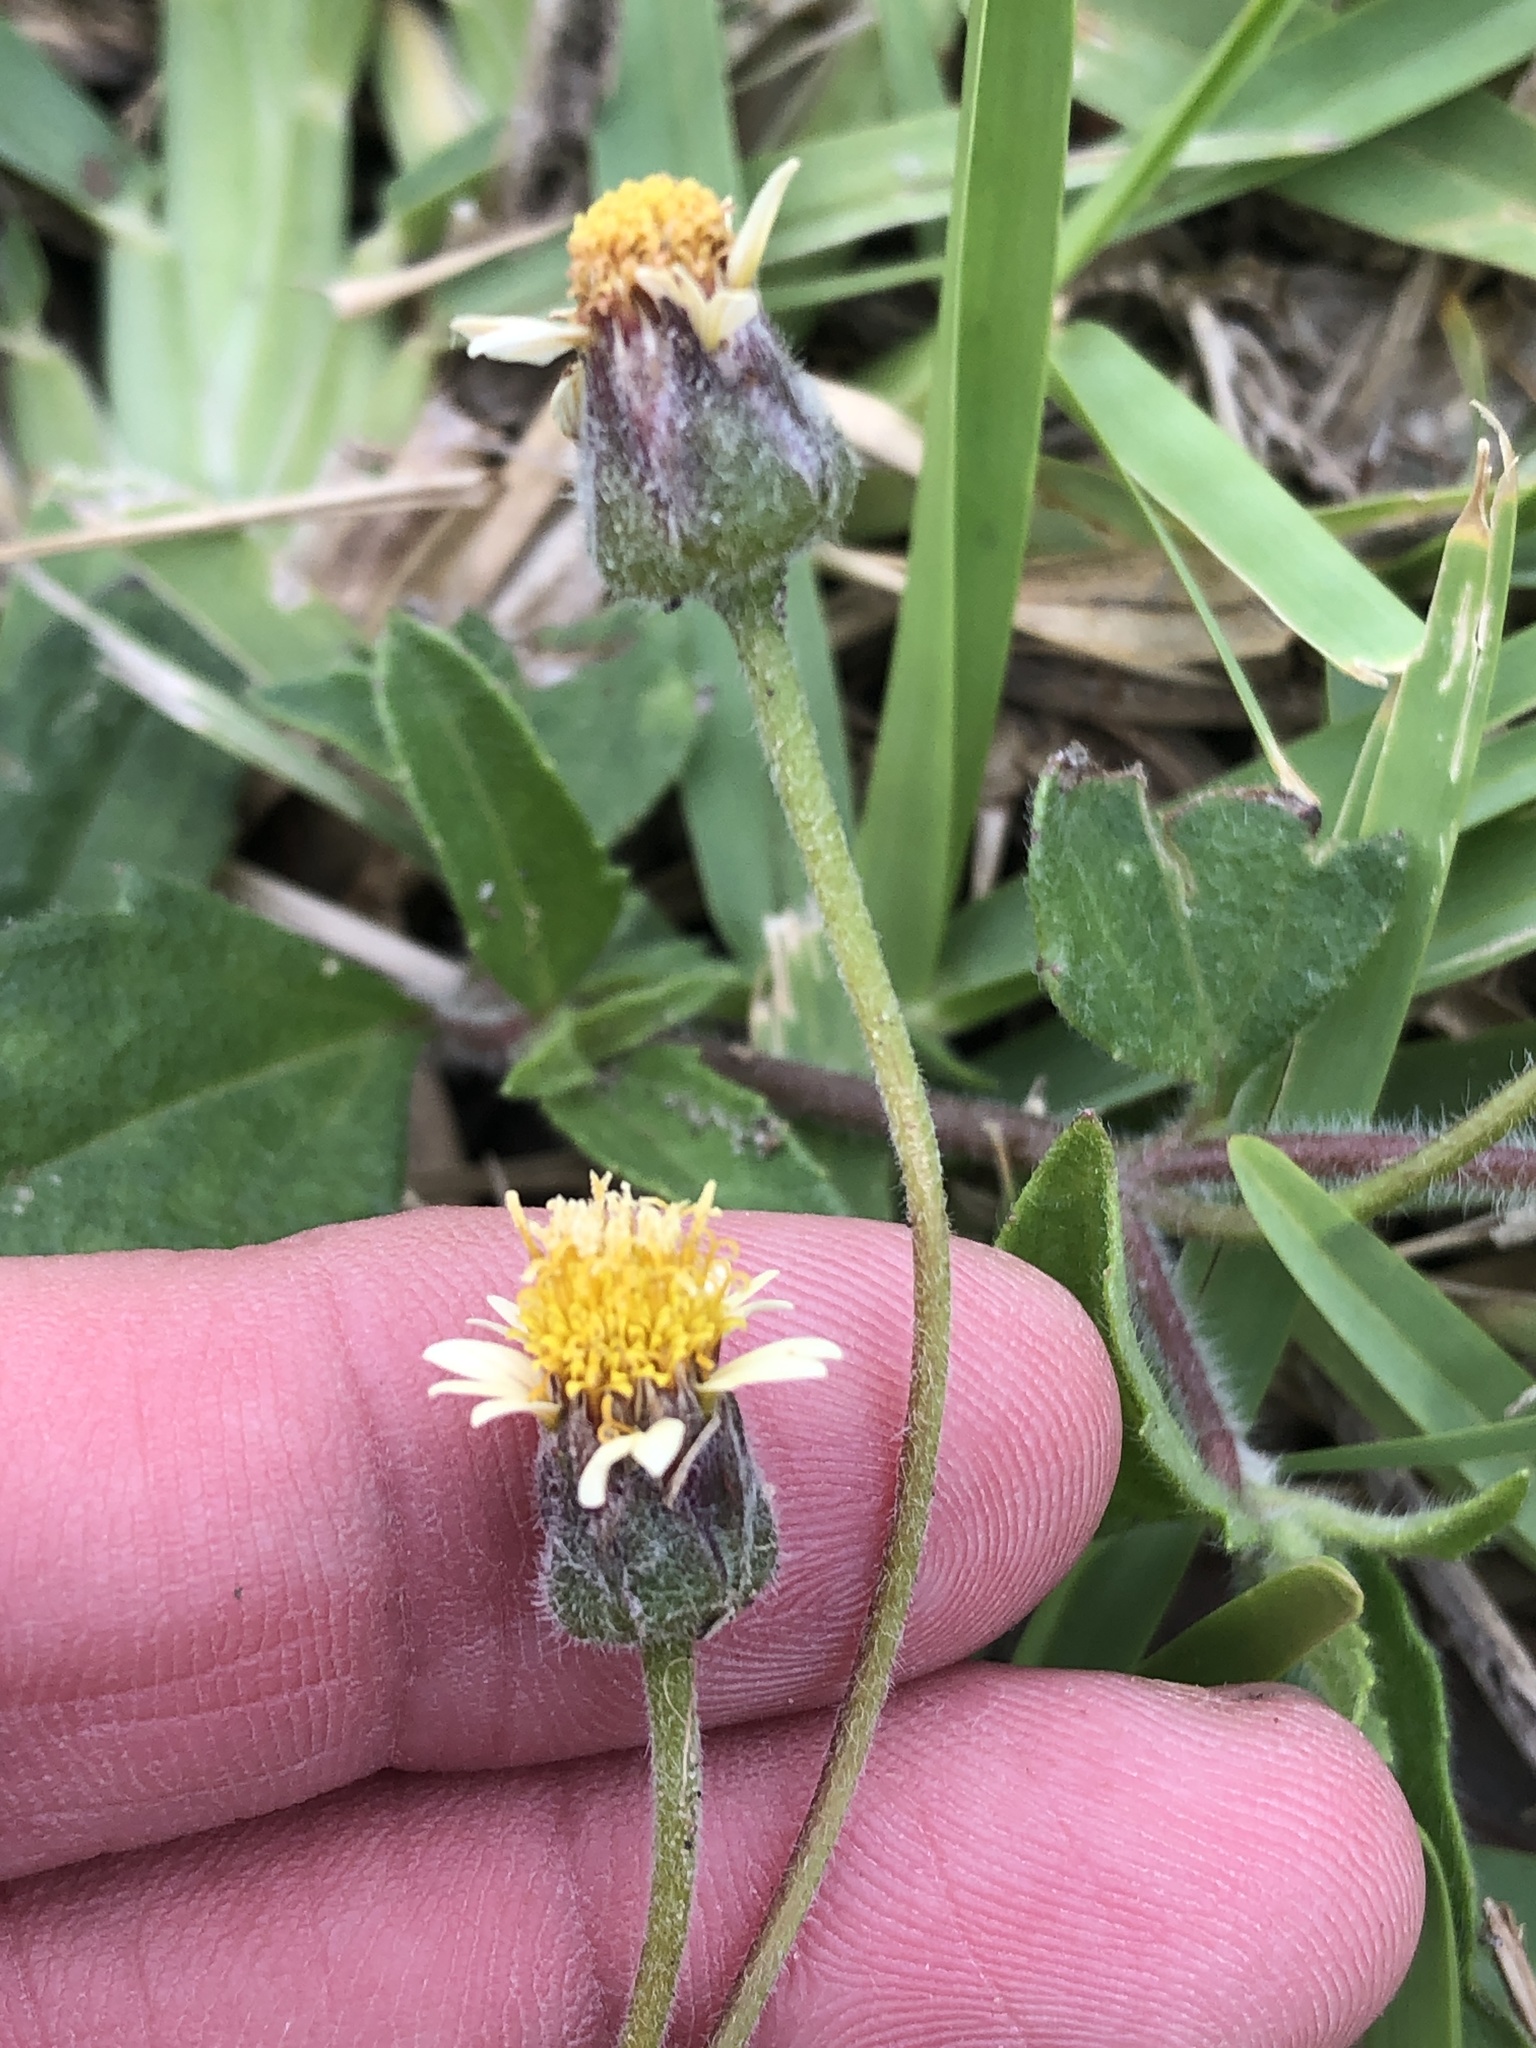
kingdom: Plantae
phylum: Tracheophyta
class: Magnoliopsida
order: Asterales
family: Asteraceae
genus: Tridax
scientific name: Tridax procumbens
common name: Coatbuttons
